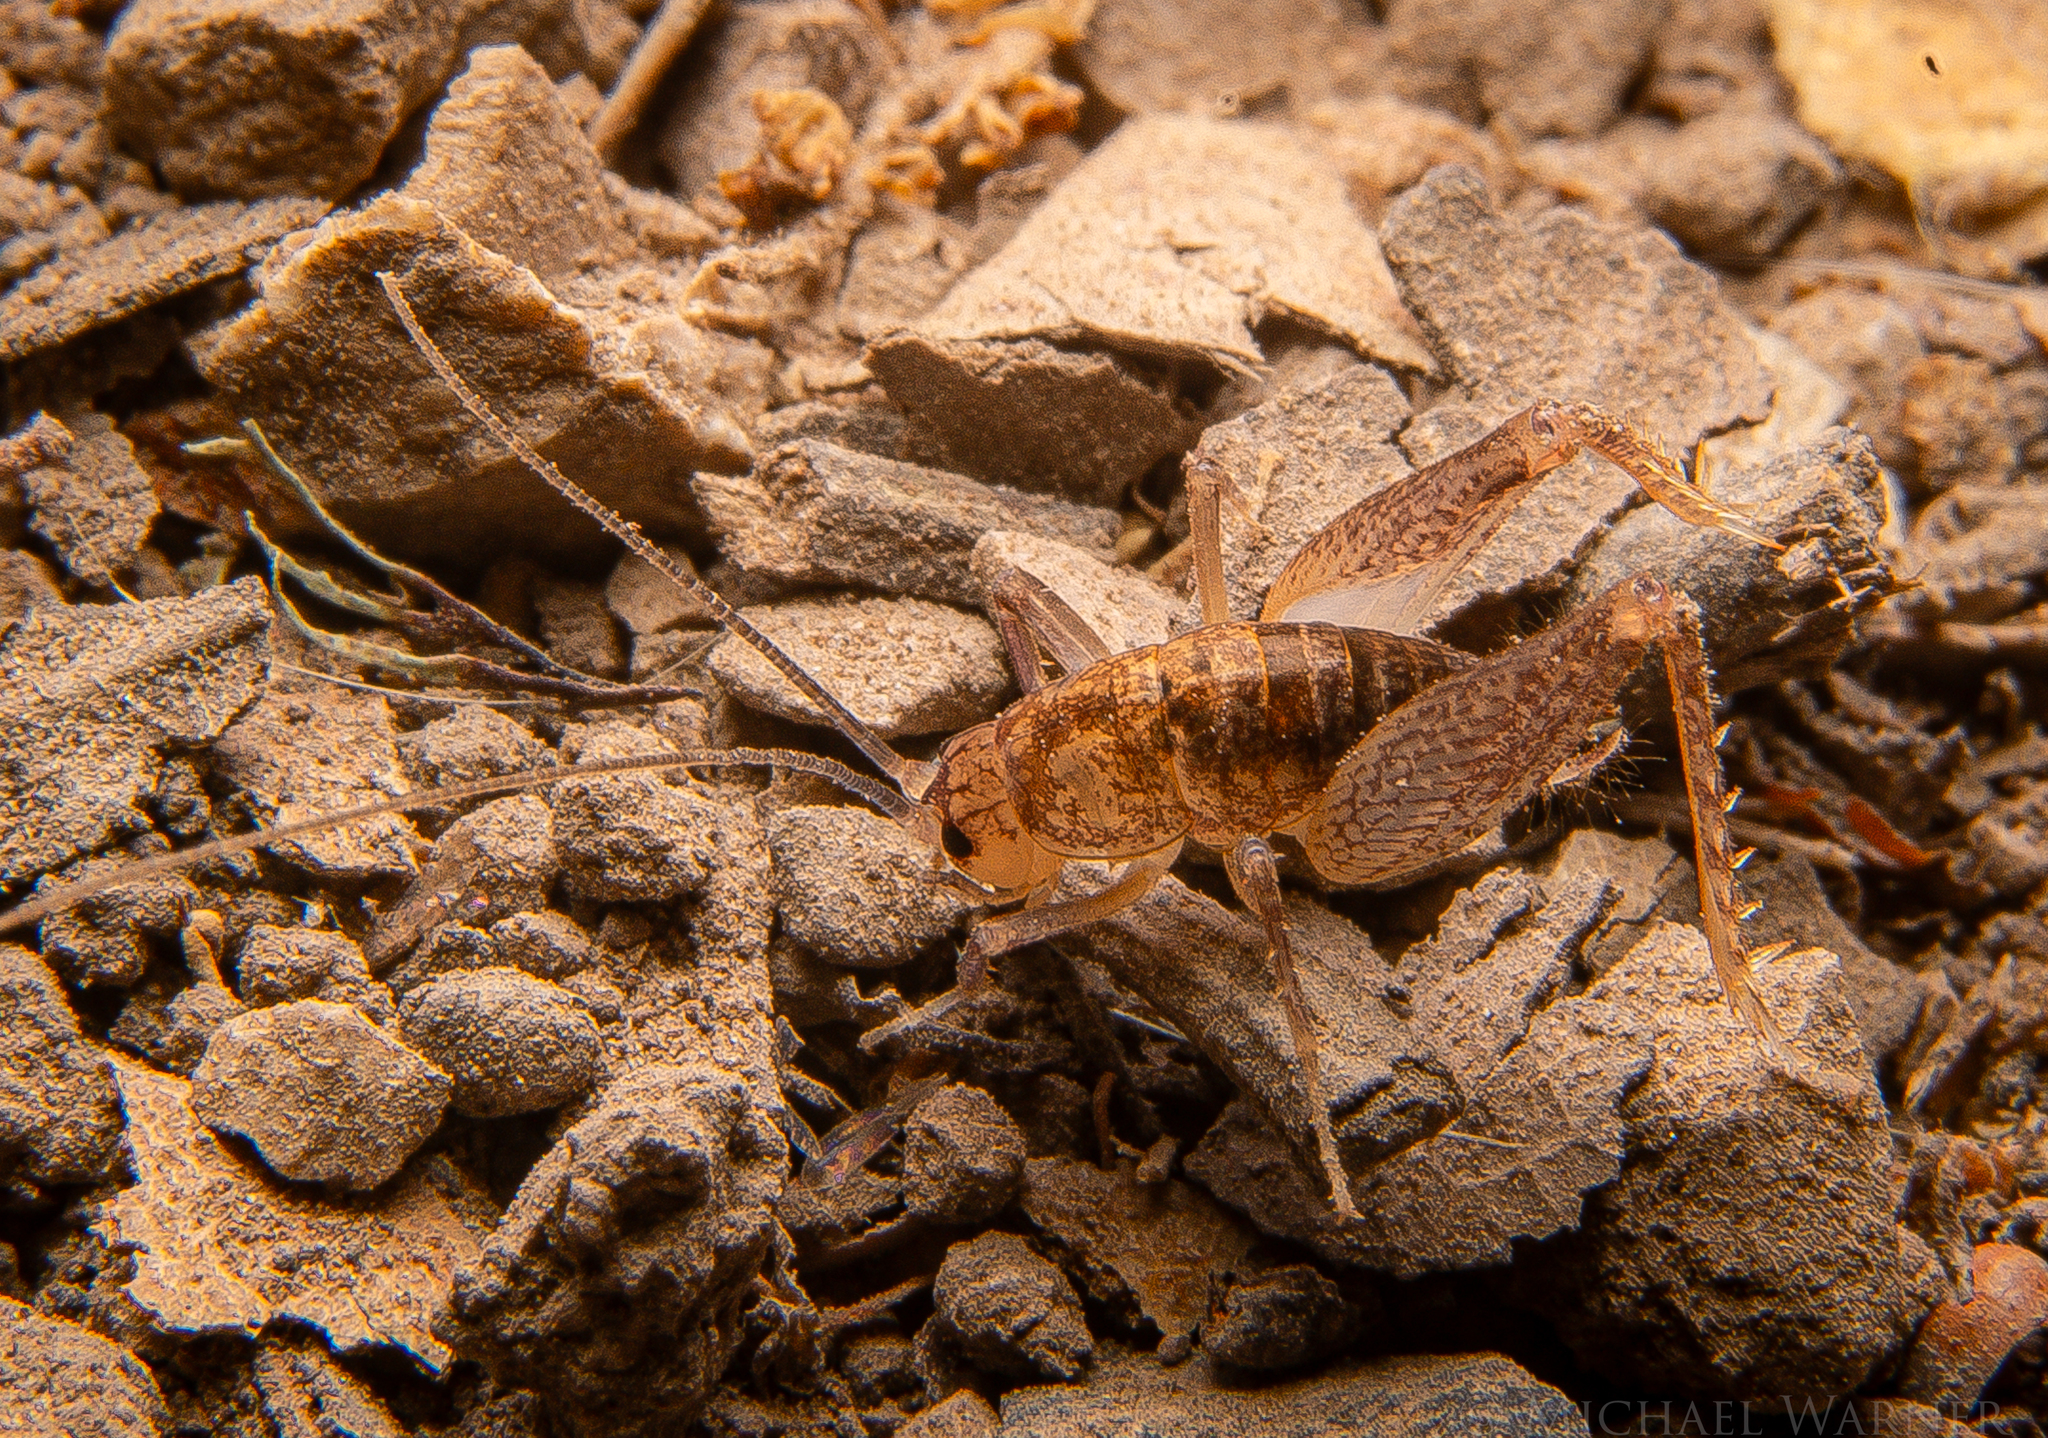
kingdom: Animalia
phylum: Arthropoda
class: Insecta
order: Orthoptera
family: Rhaphidophoridae
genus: Ceuthophilus
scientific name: Ceuthophilus californianus
